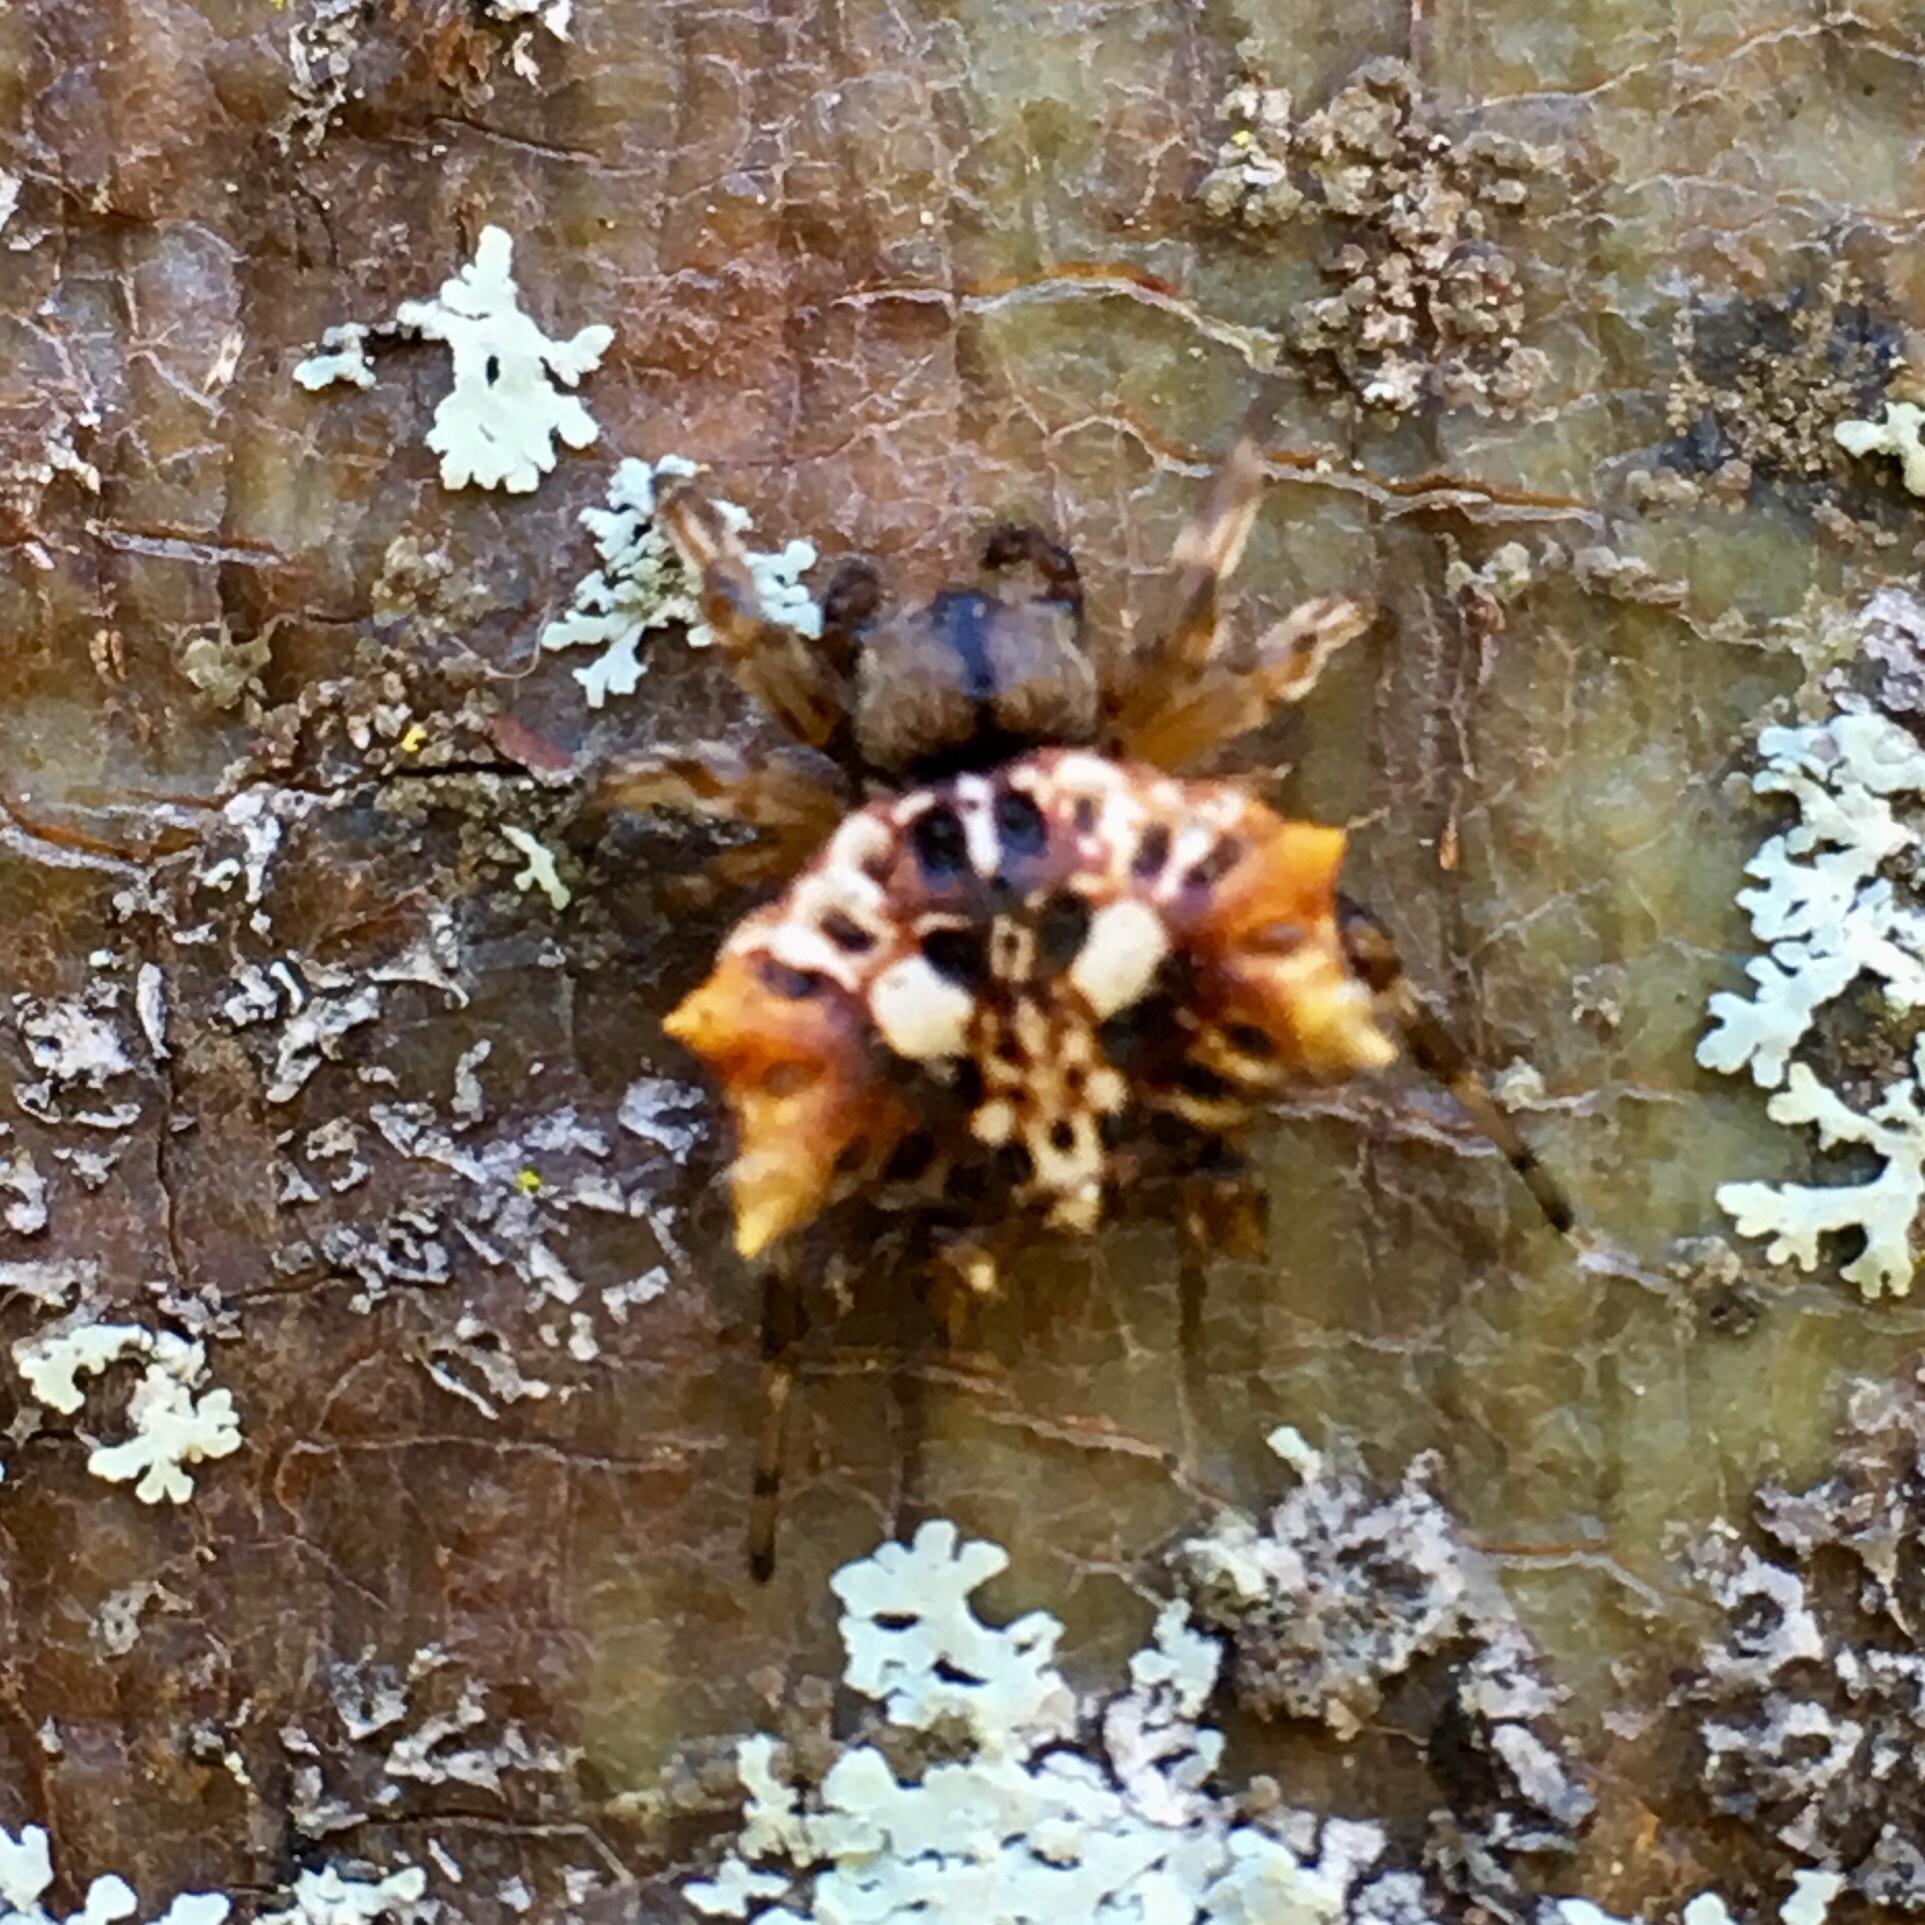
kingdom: Animalia
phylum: Arthropoda
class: Arachnida
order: Araneae
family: Araneidae
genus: Thelacantha
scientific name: Thelacantha brevispina
